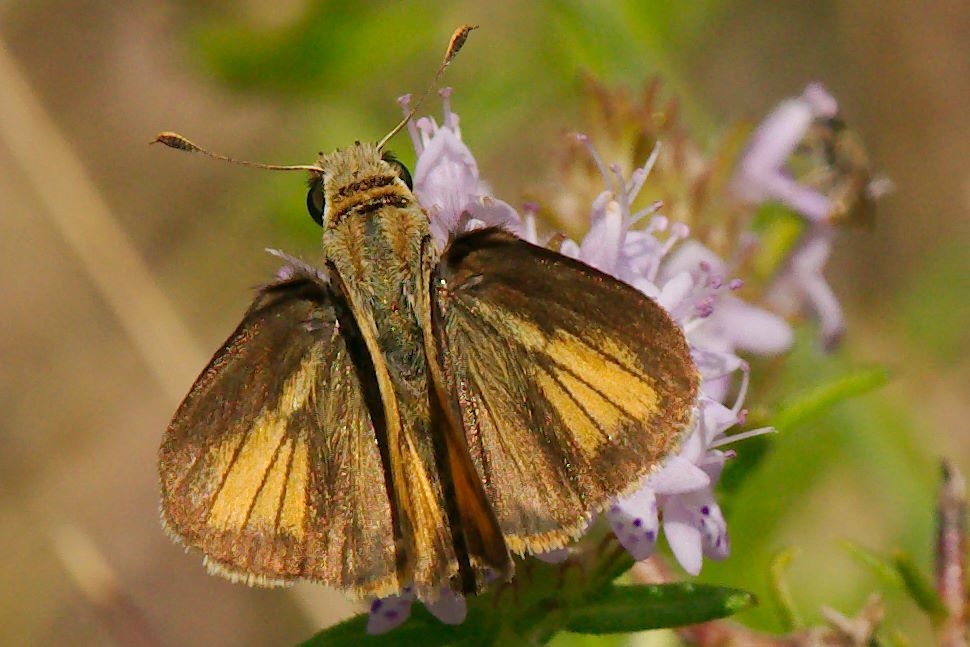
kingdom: Animalia
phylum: Arthropoda
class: Insecta
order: Lepidoptera
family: Hesperiidae
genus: Polites
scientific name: Polites vibex
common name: Whirlabout
